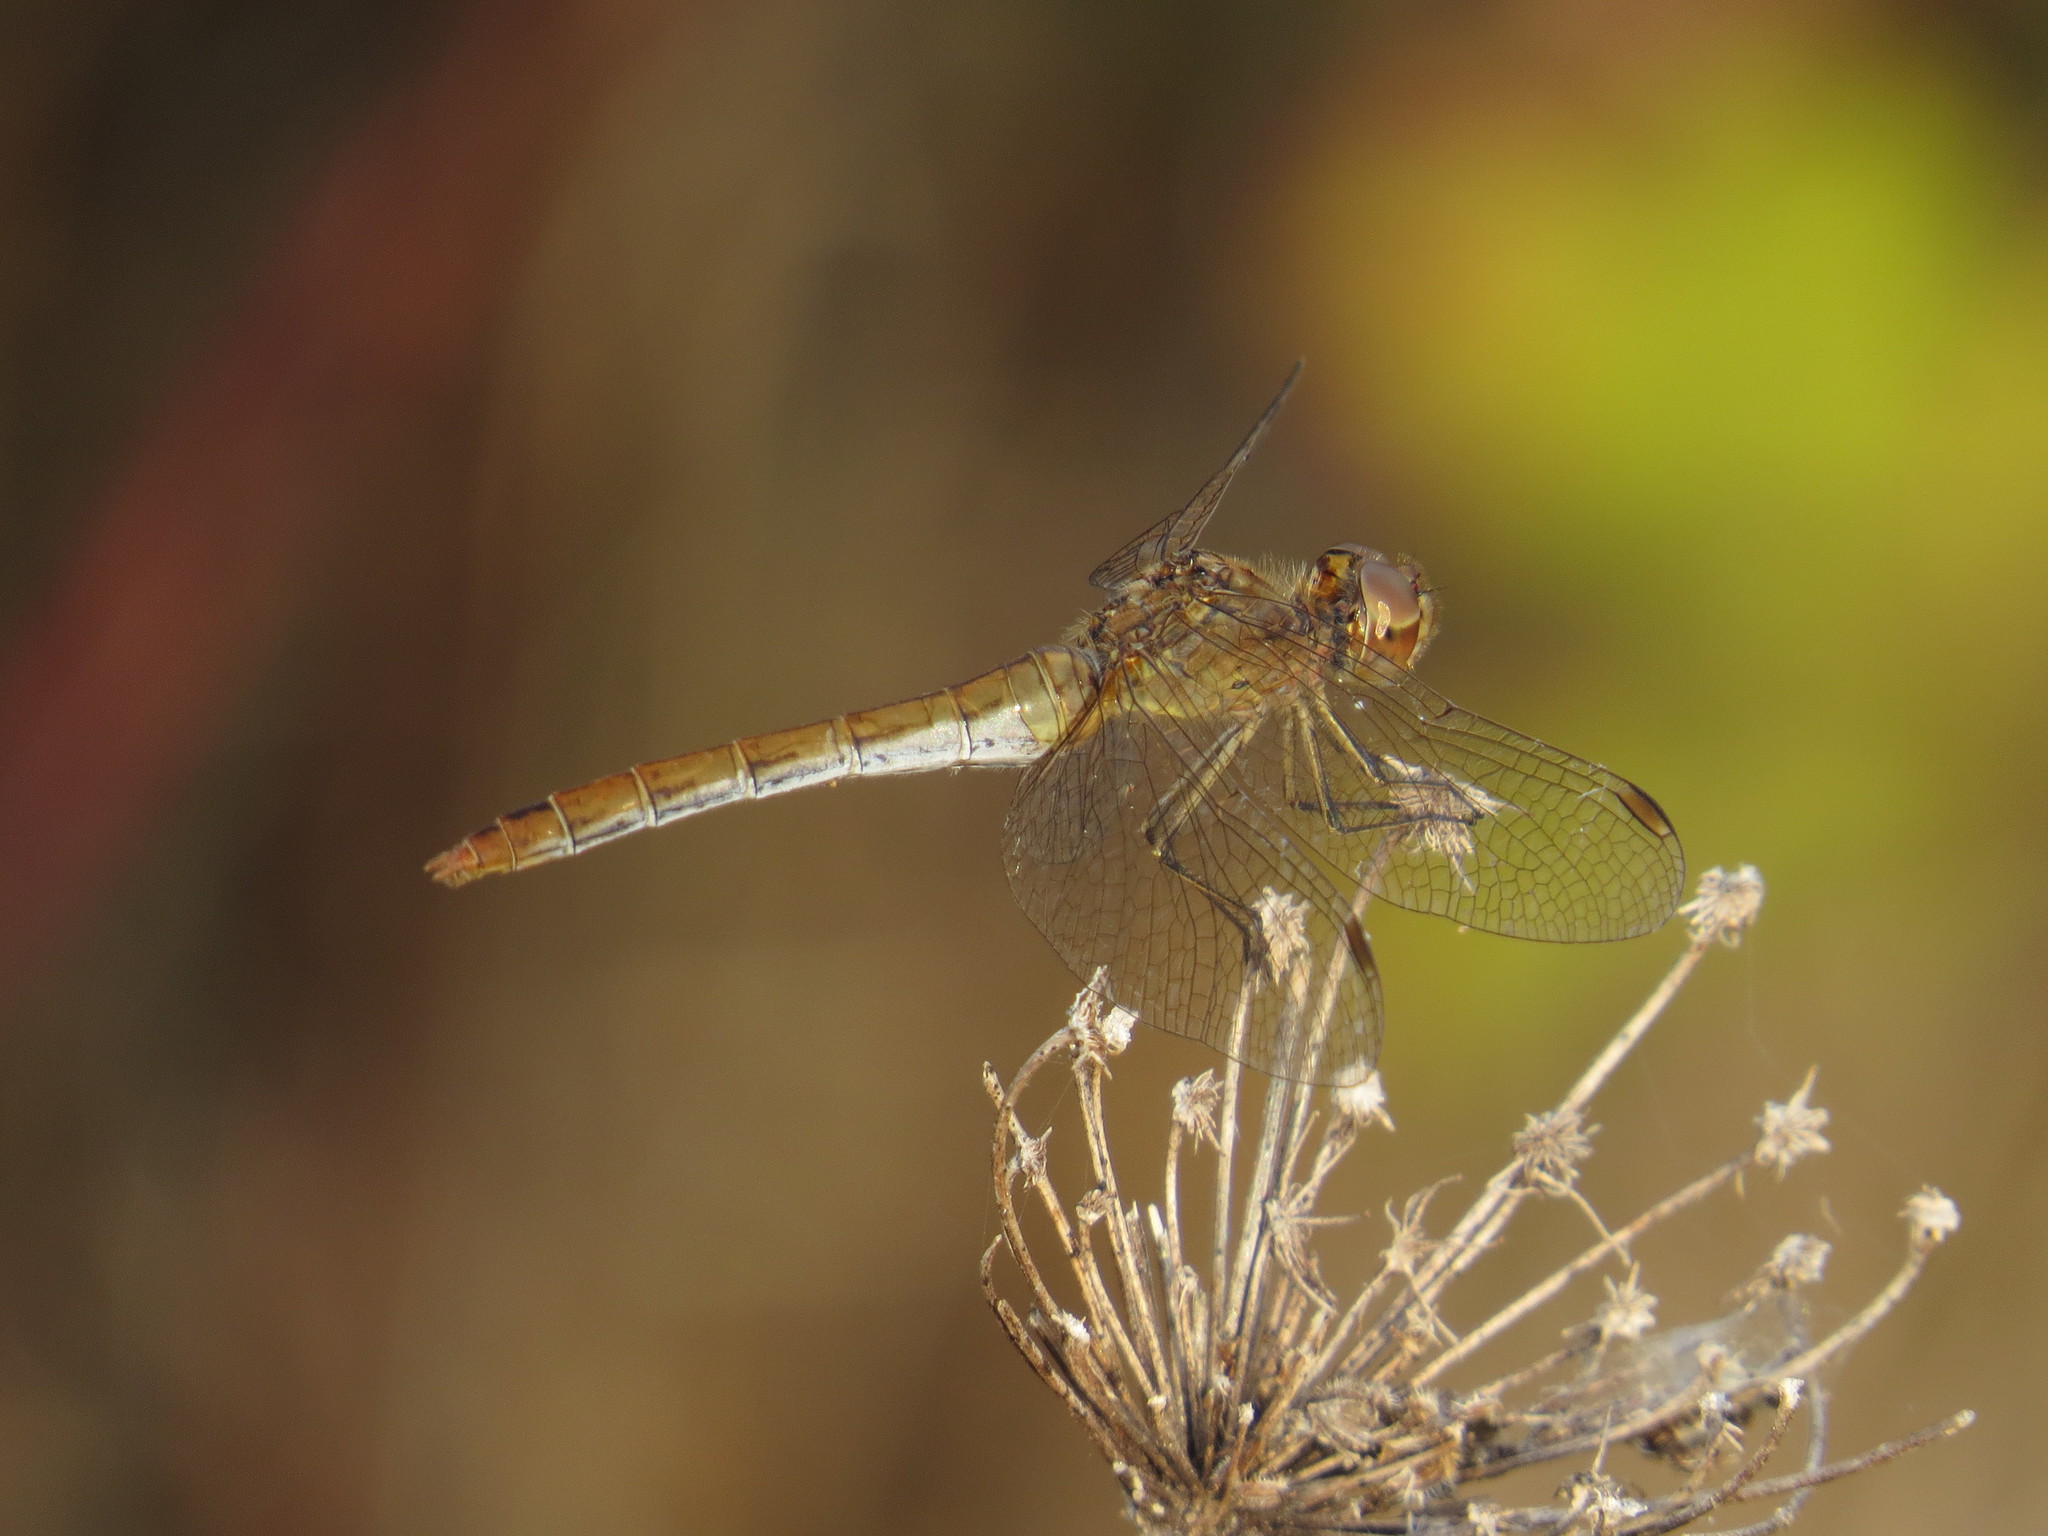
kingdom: Animalia
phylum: Arthropoda
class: Insecta
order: Odonata
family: Libellulidae
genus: Sympetrum
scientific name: Sympetrum meridionale
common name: Southern darter
